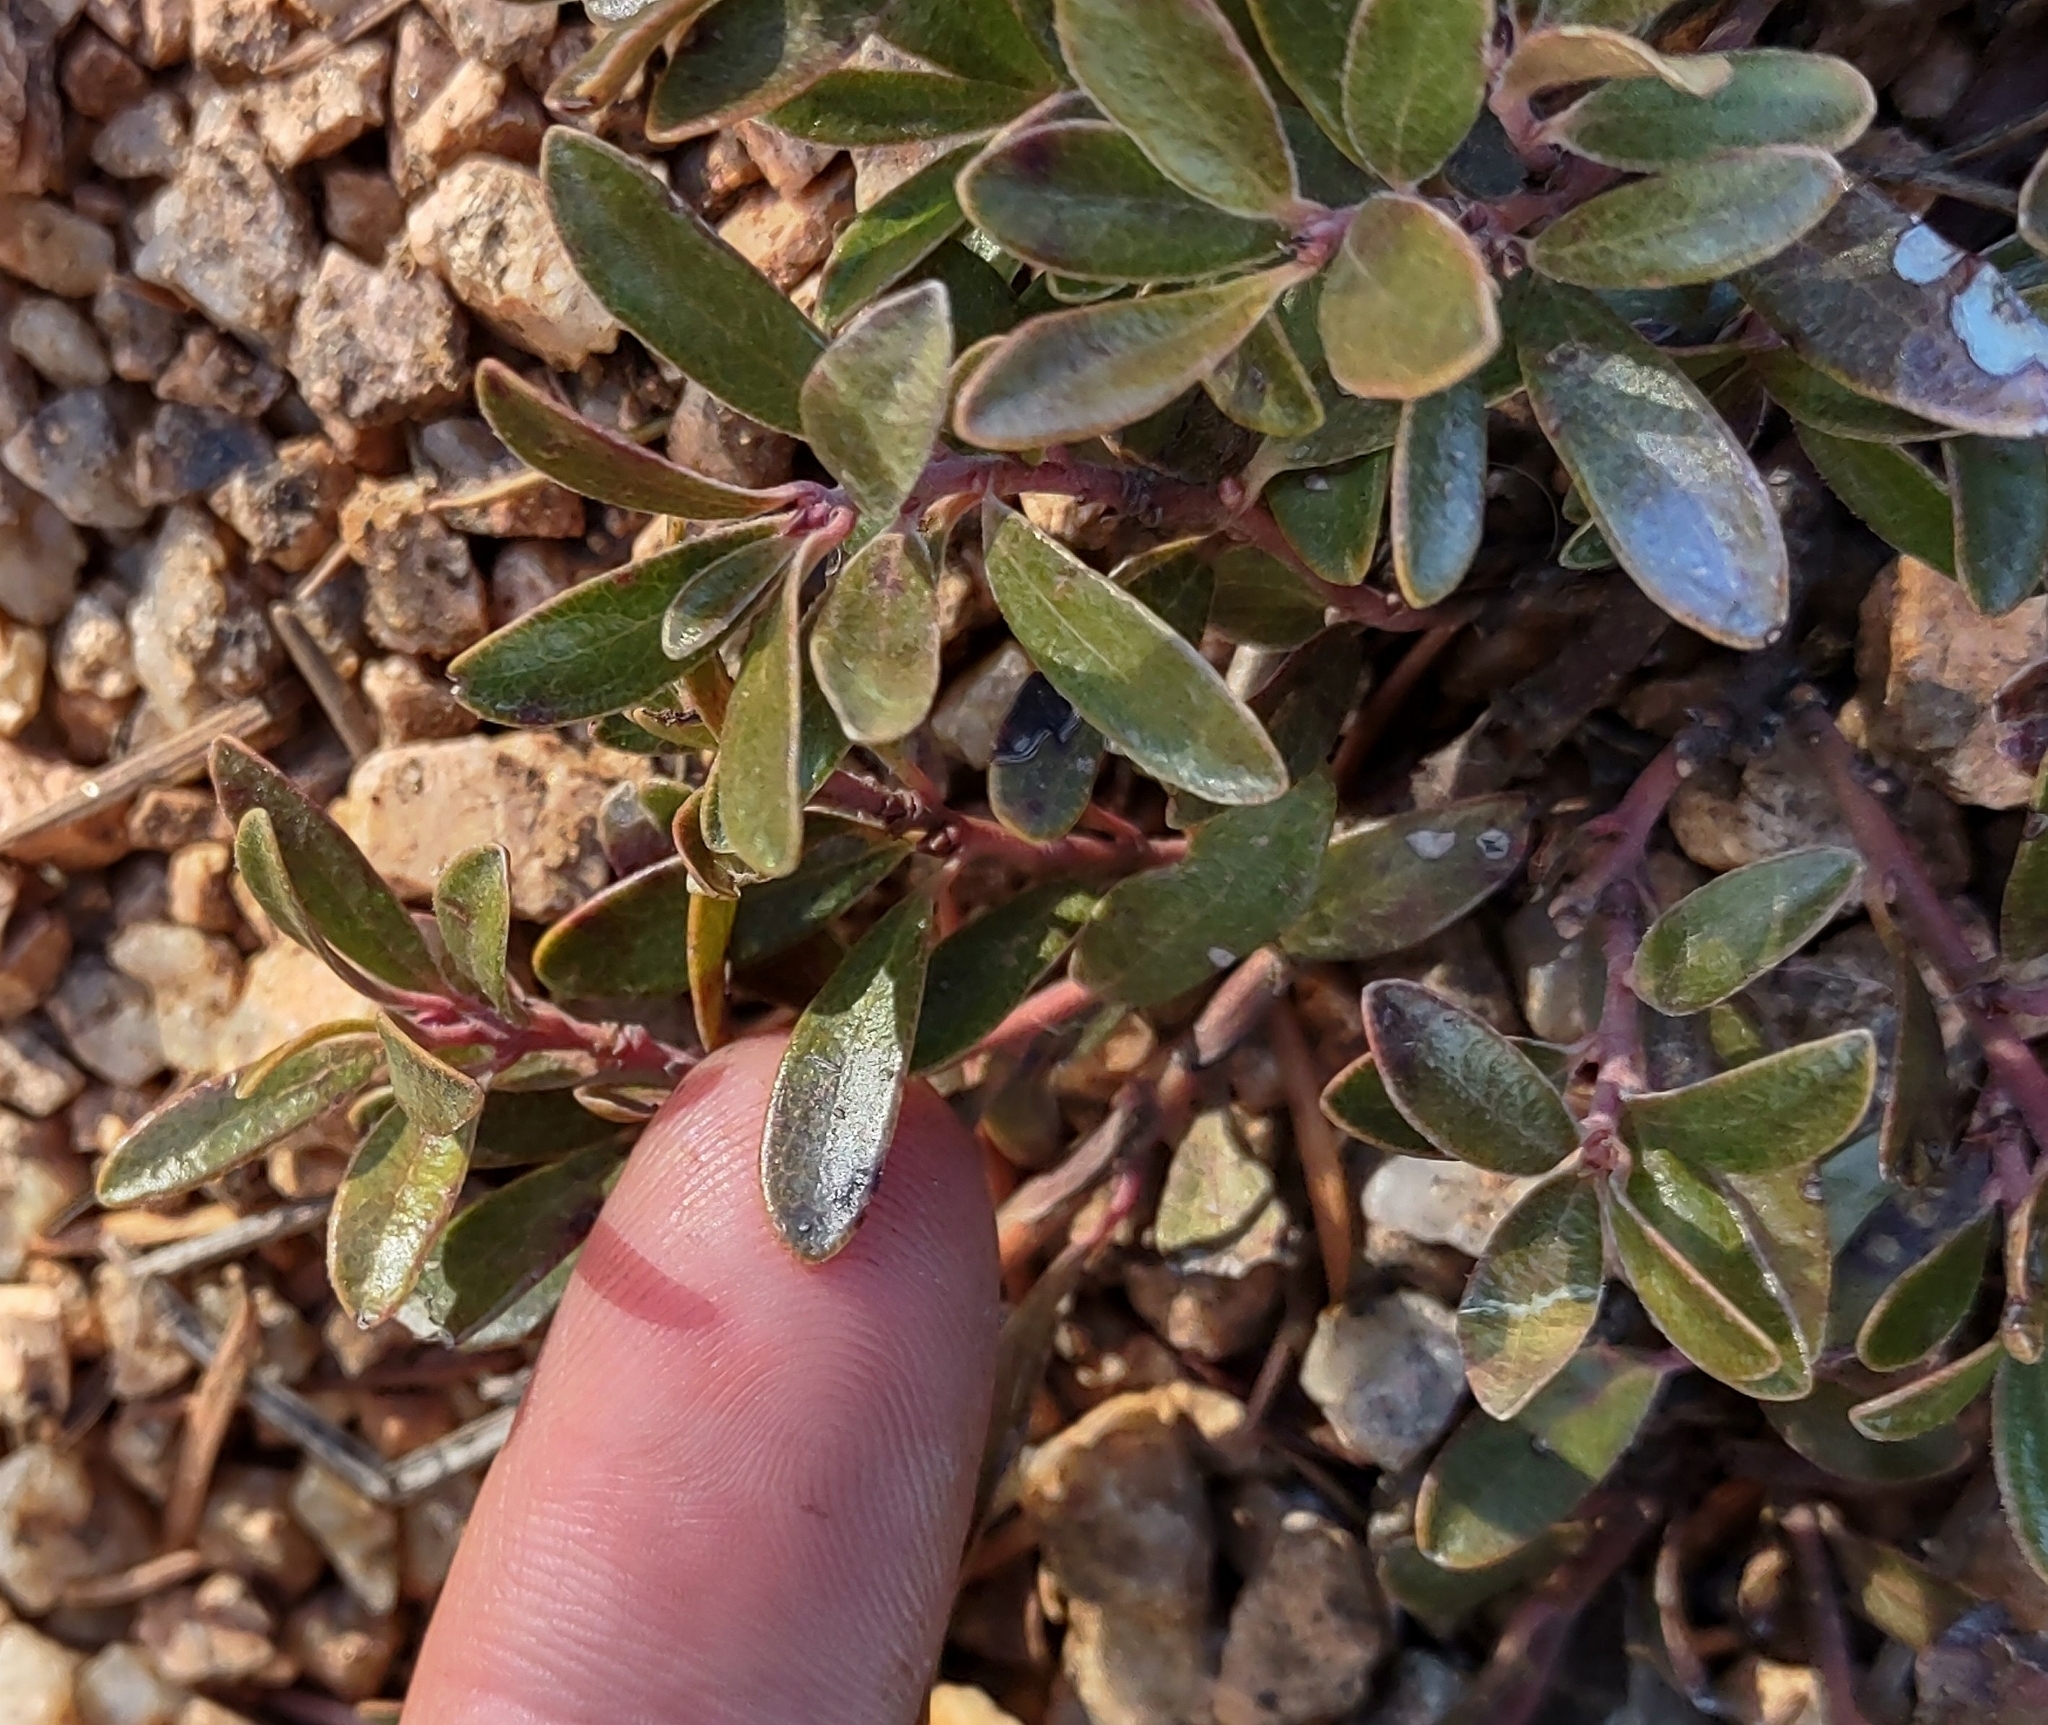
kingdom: Plantae
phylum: Tracheophyta
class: Magnoliopsida
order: Ericales
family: Ericaceae
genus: Arctostaphylos
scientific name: Arctostaphylos uva-ursi
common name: Bearberry
